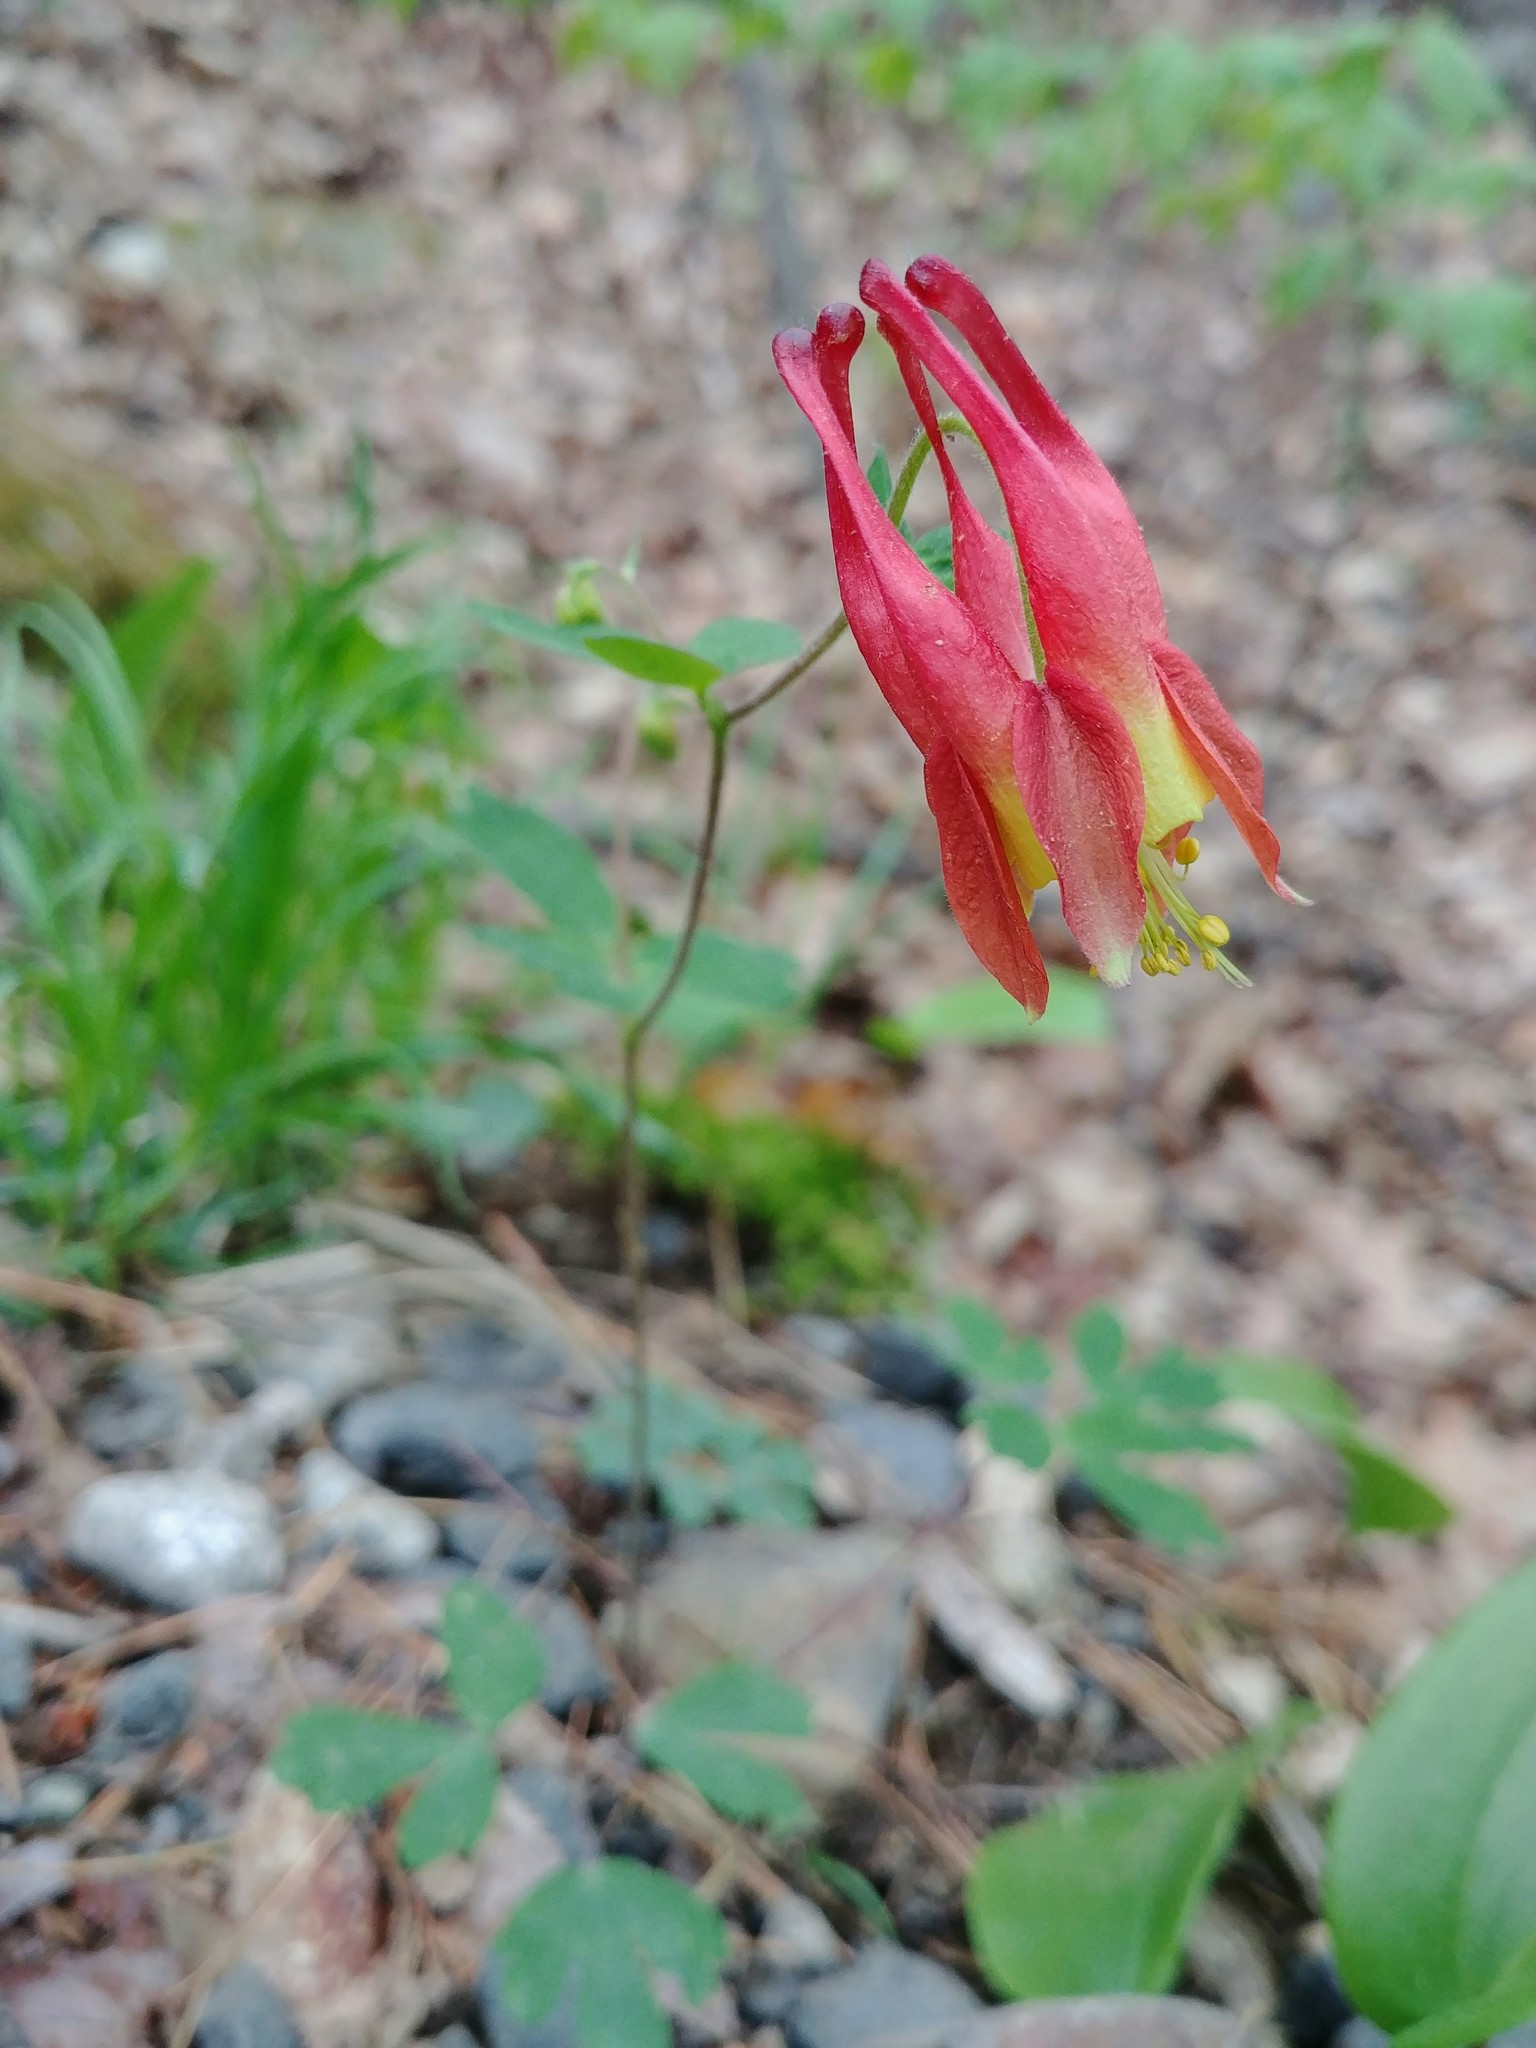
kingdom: Plantae
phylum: Tracheophyta
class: Magnoliopsida
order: Ranunculales
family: Ranunculaceae
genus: Aquilegia
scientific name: Aquilegia canadensis
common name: American columbine
